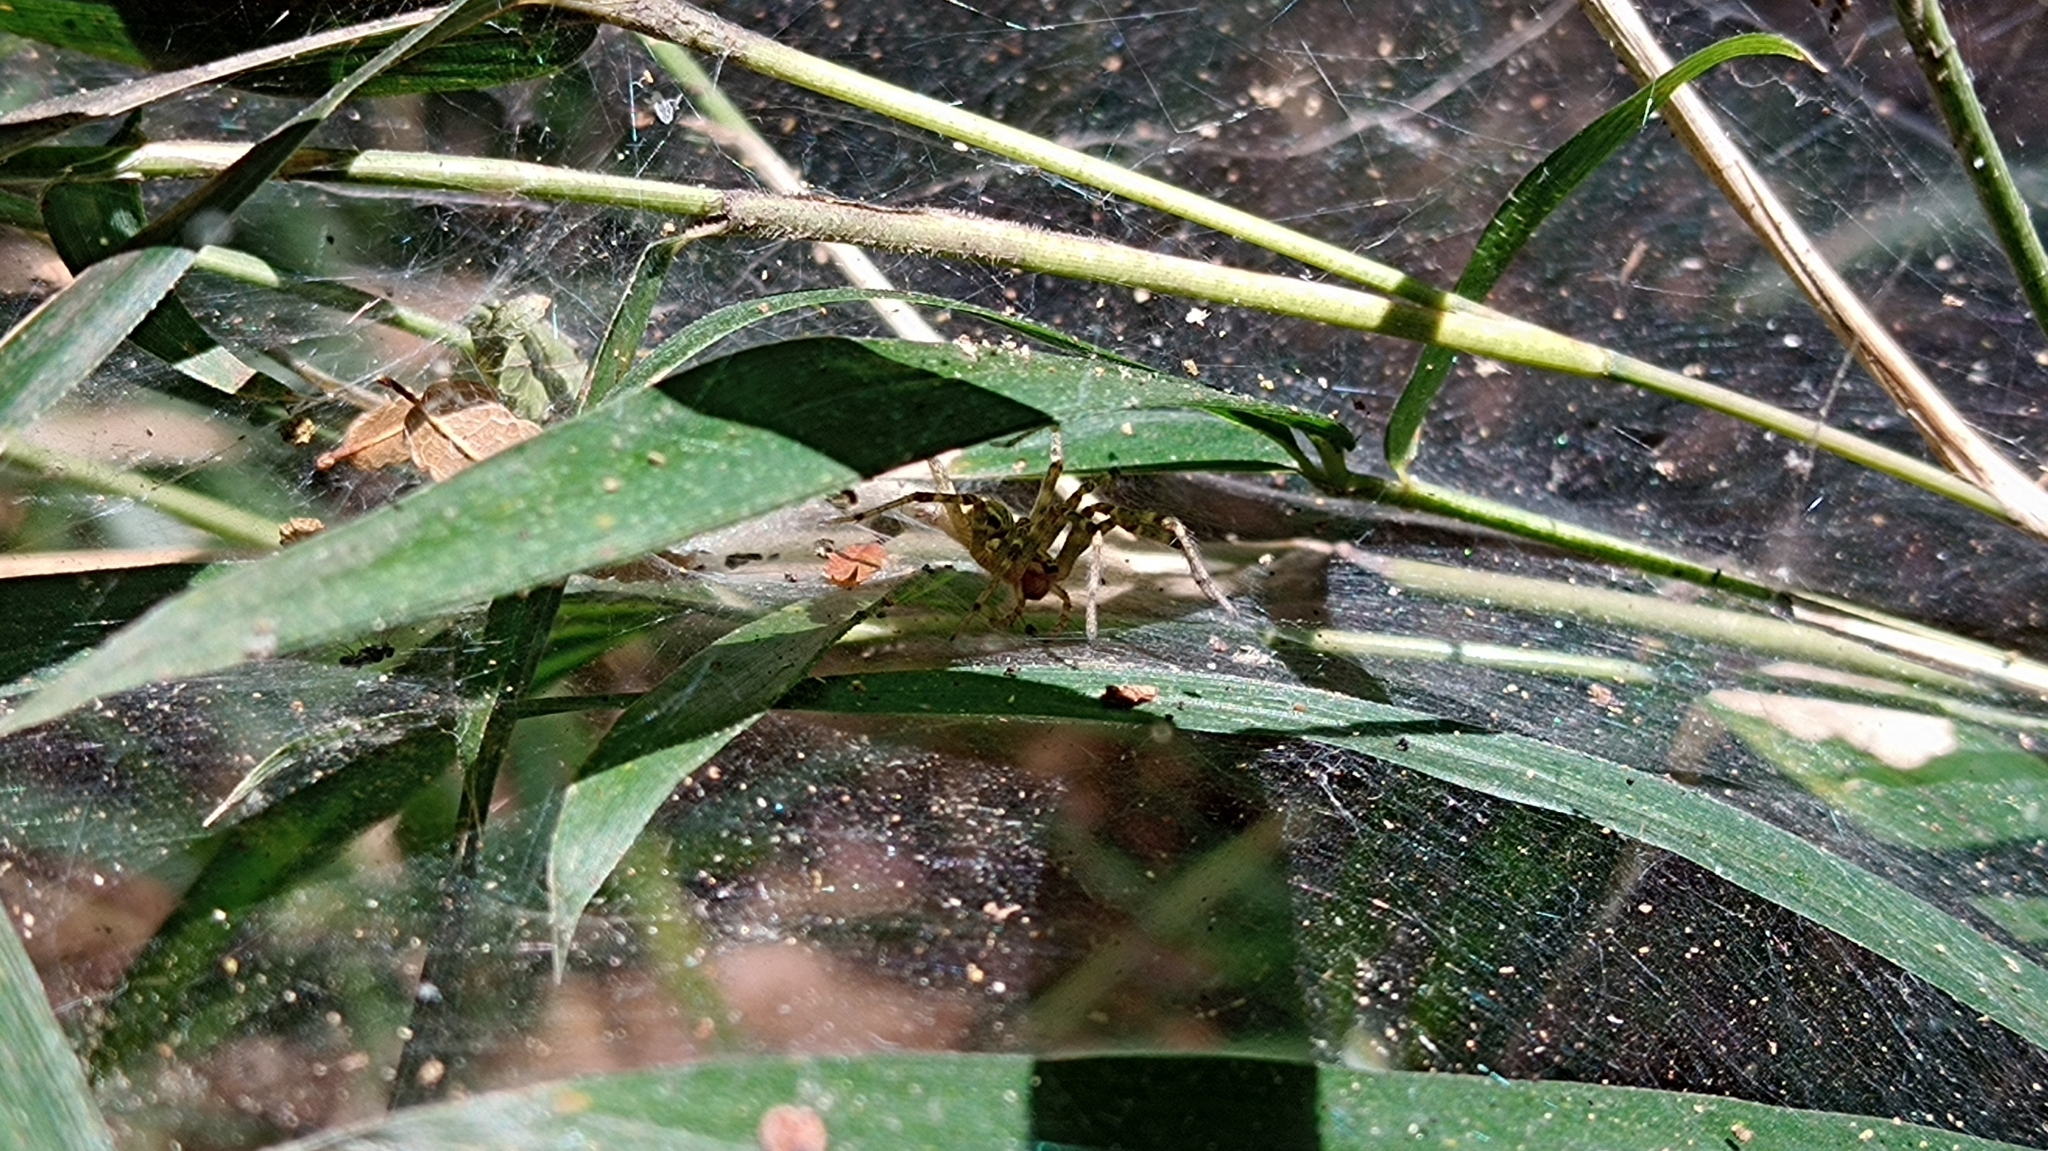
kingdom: Animalia
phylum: Arthropoda
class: Arachnida
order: Araneae
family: Agelenidae
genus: Allagelena
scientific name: Allagelena opulenta
